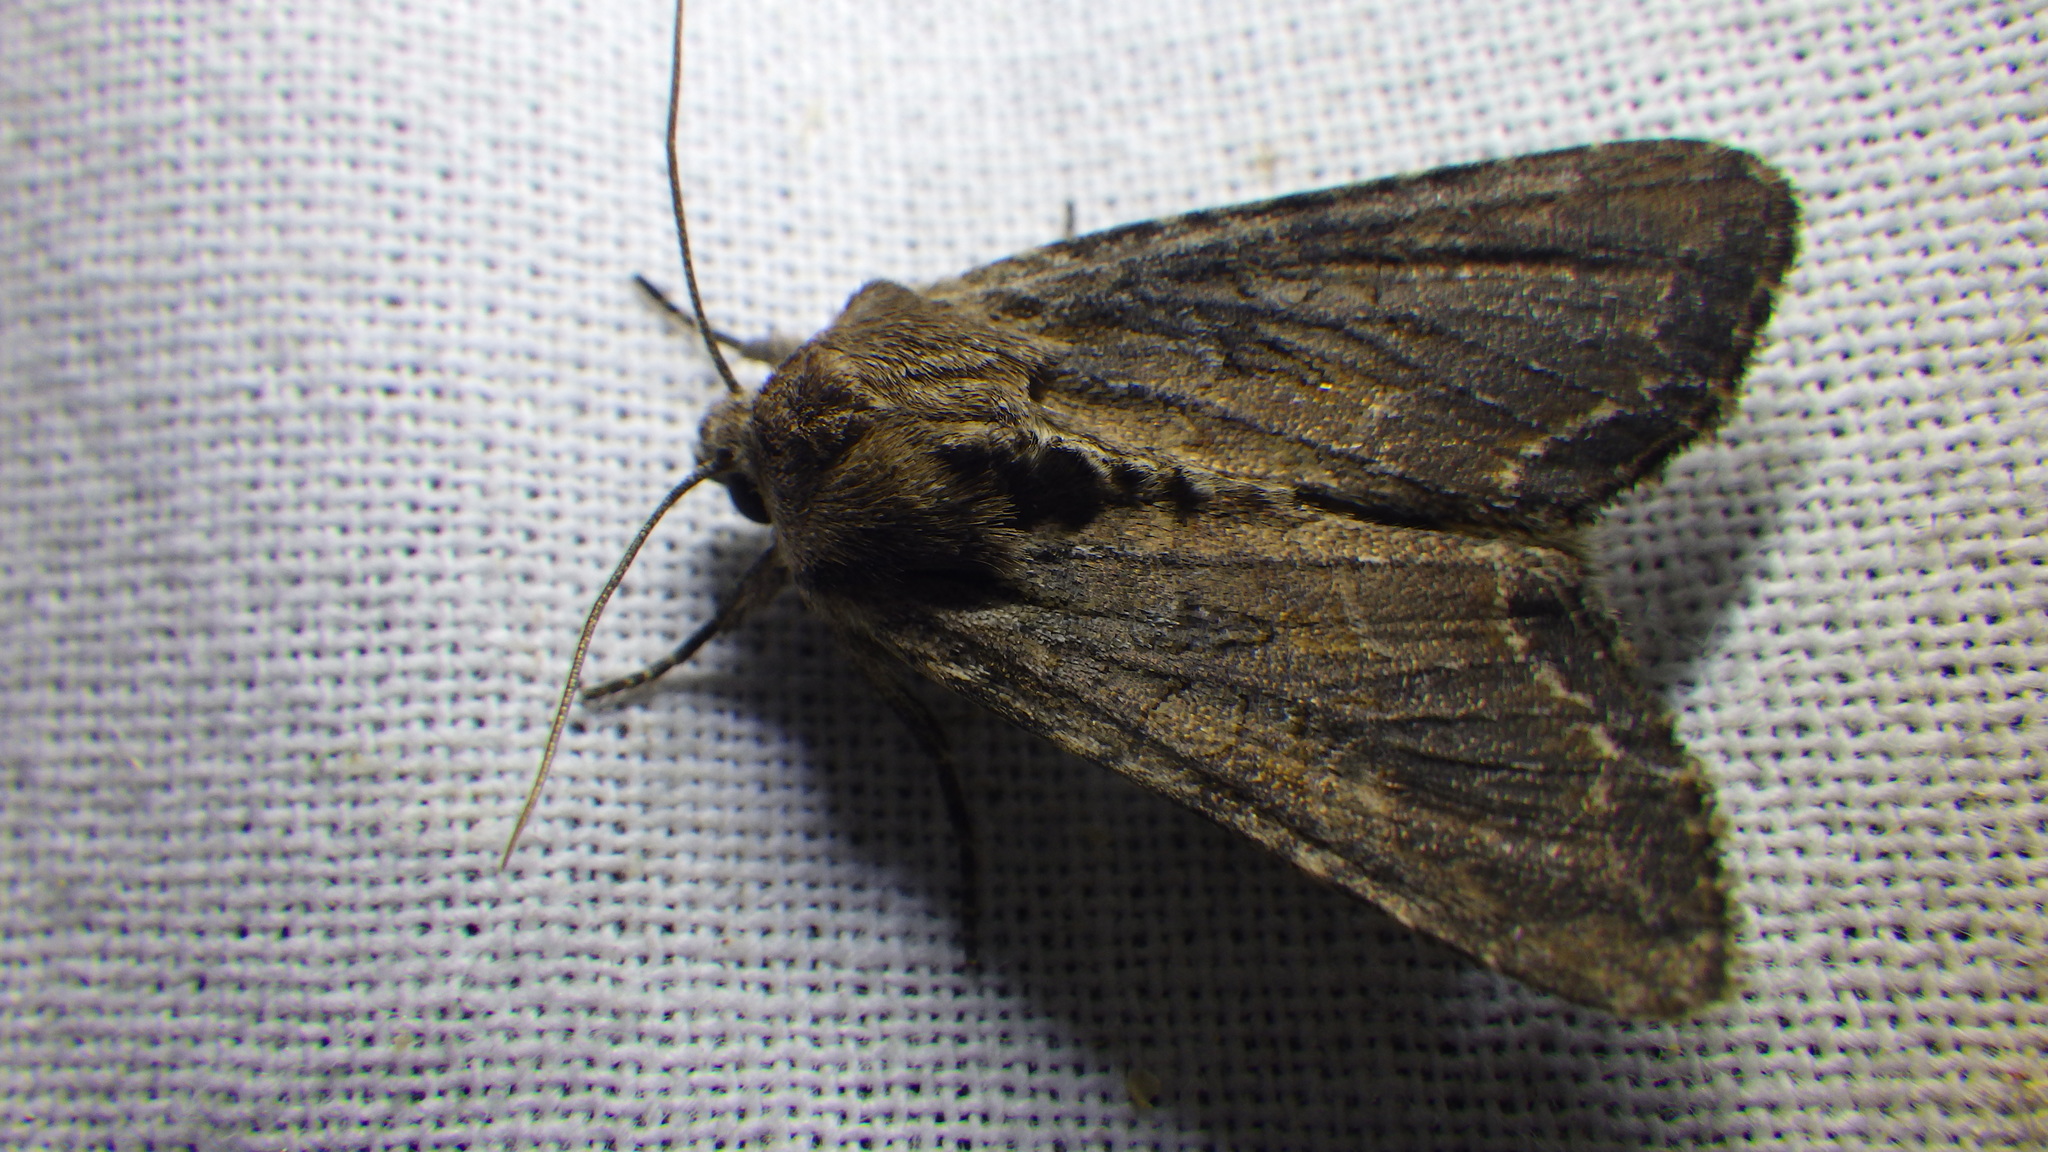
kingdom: Animalia
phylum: Arthropoda
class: Insecta
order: Lepidoptera
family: Noctuidae
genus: Lacanobia
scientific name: Lacanobia suasa
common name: Dog's tooth
